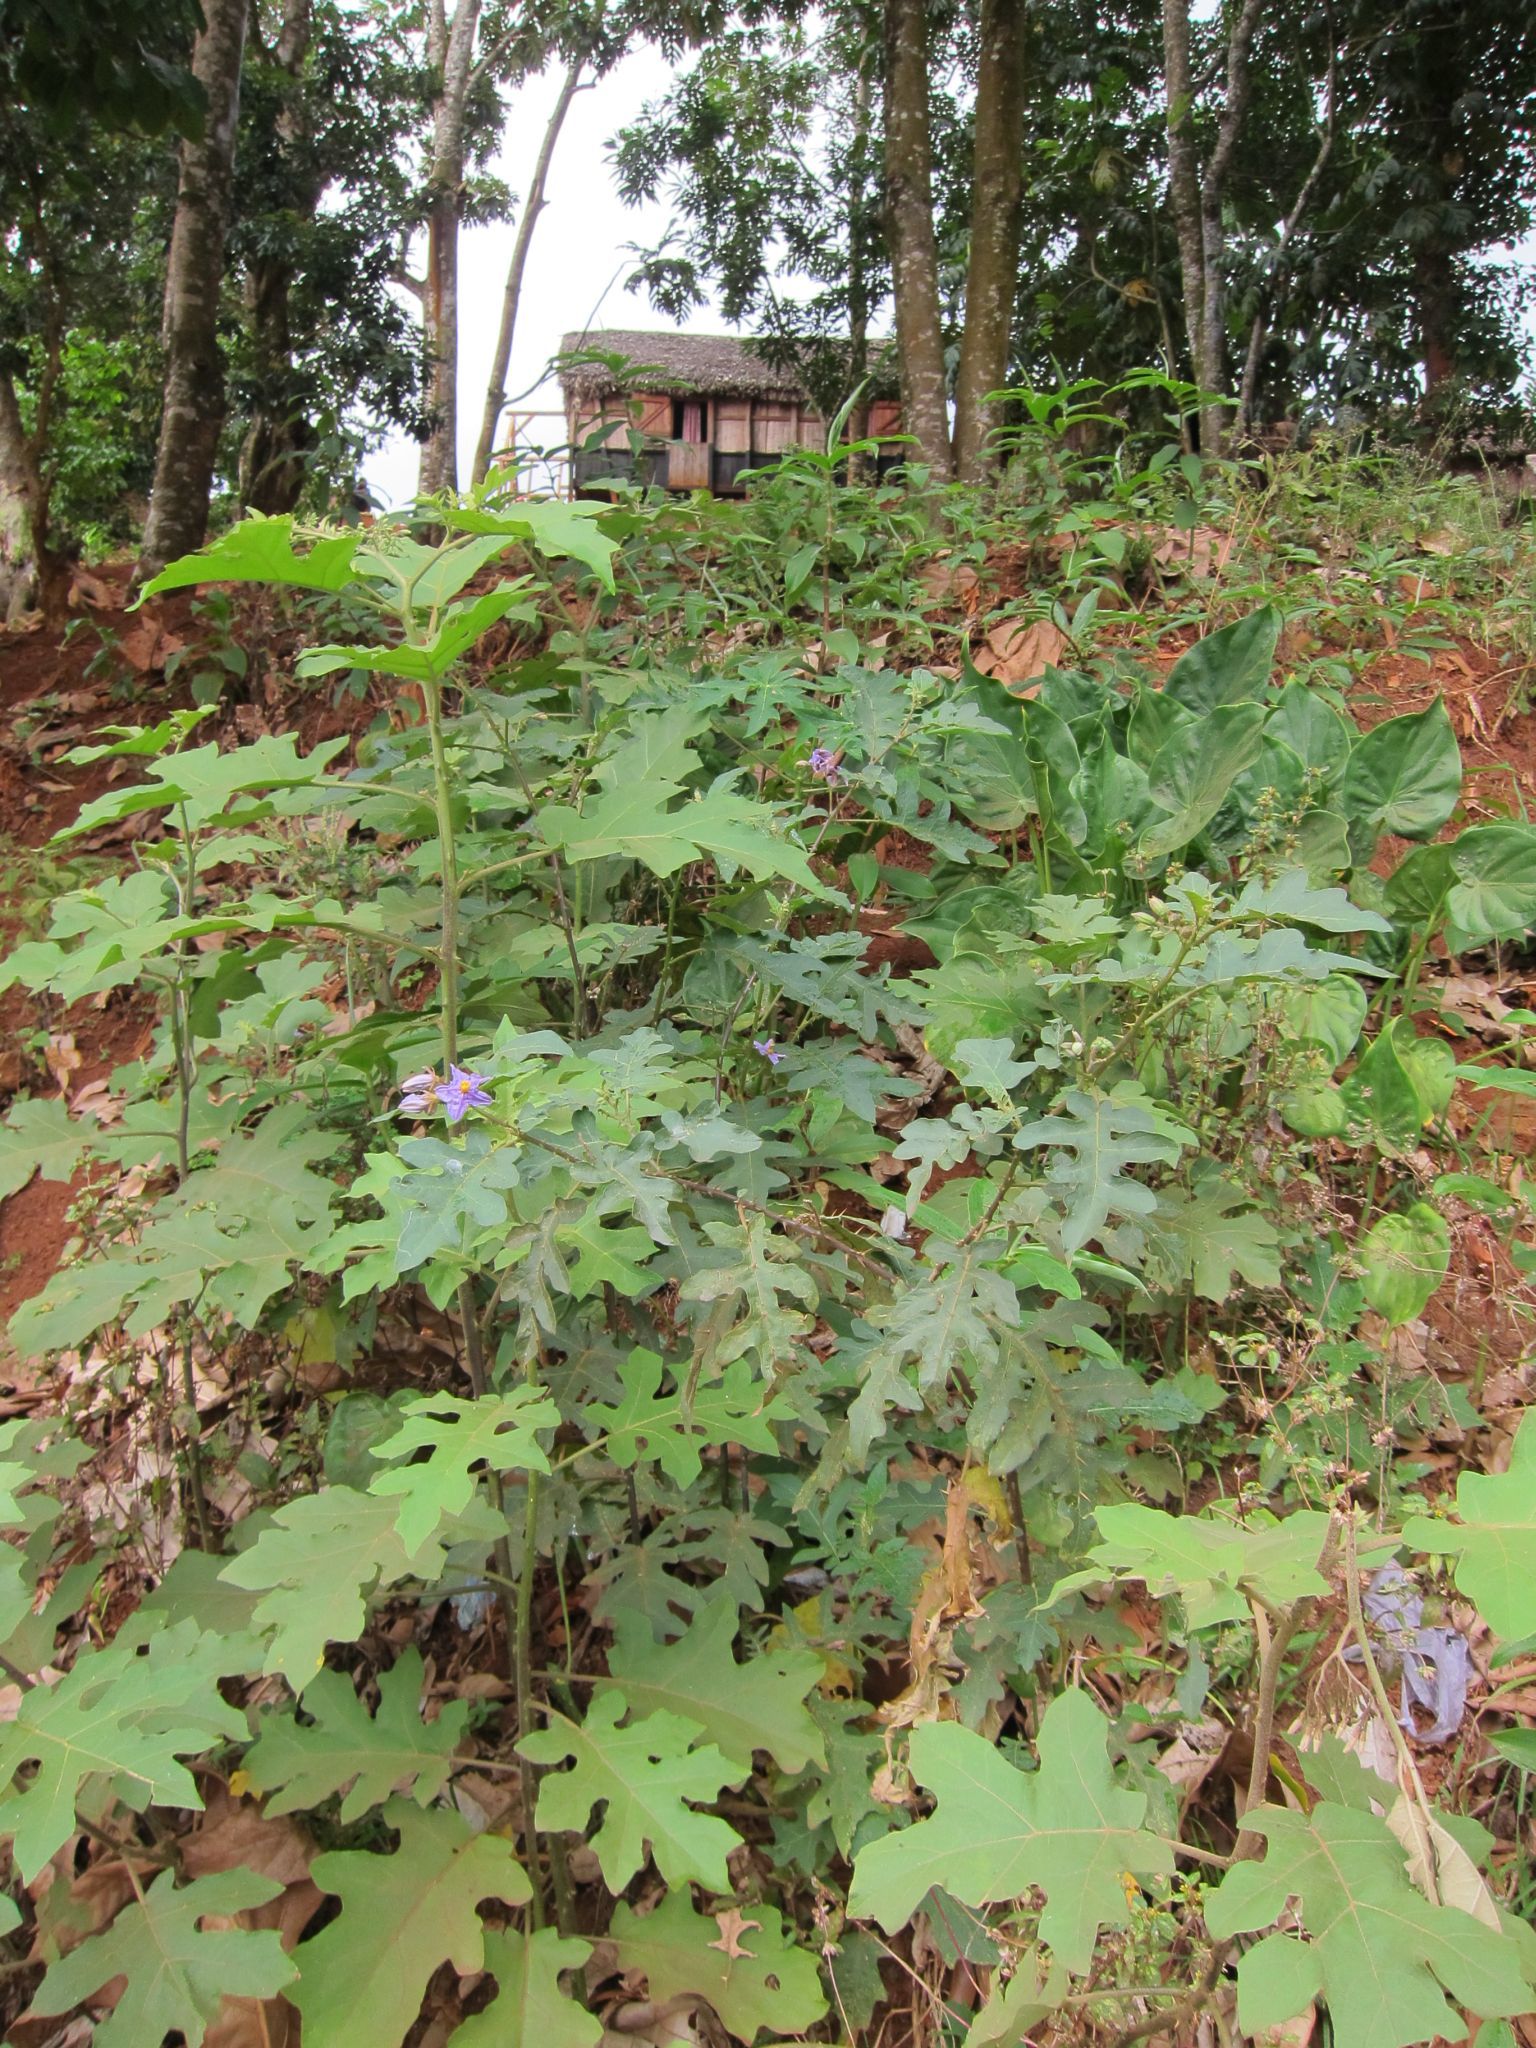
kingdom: Plantae
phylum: Tracheophyta
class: Magnoliopsida
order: Solanales
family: Solanaceae
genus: Solanum
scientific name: Solanum richardii
